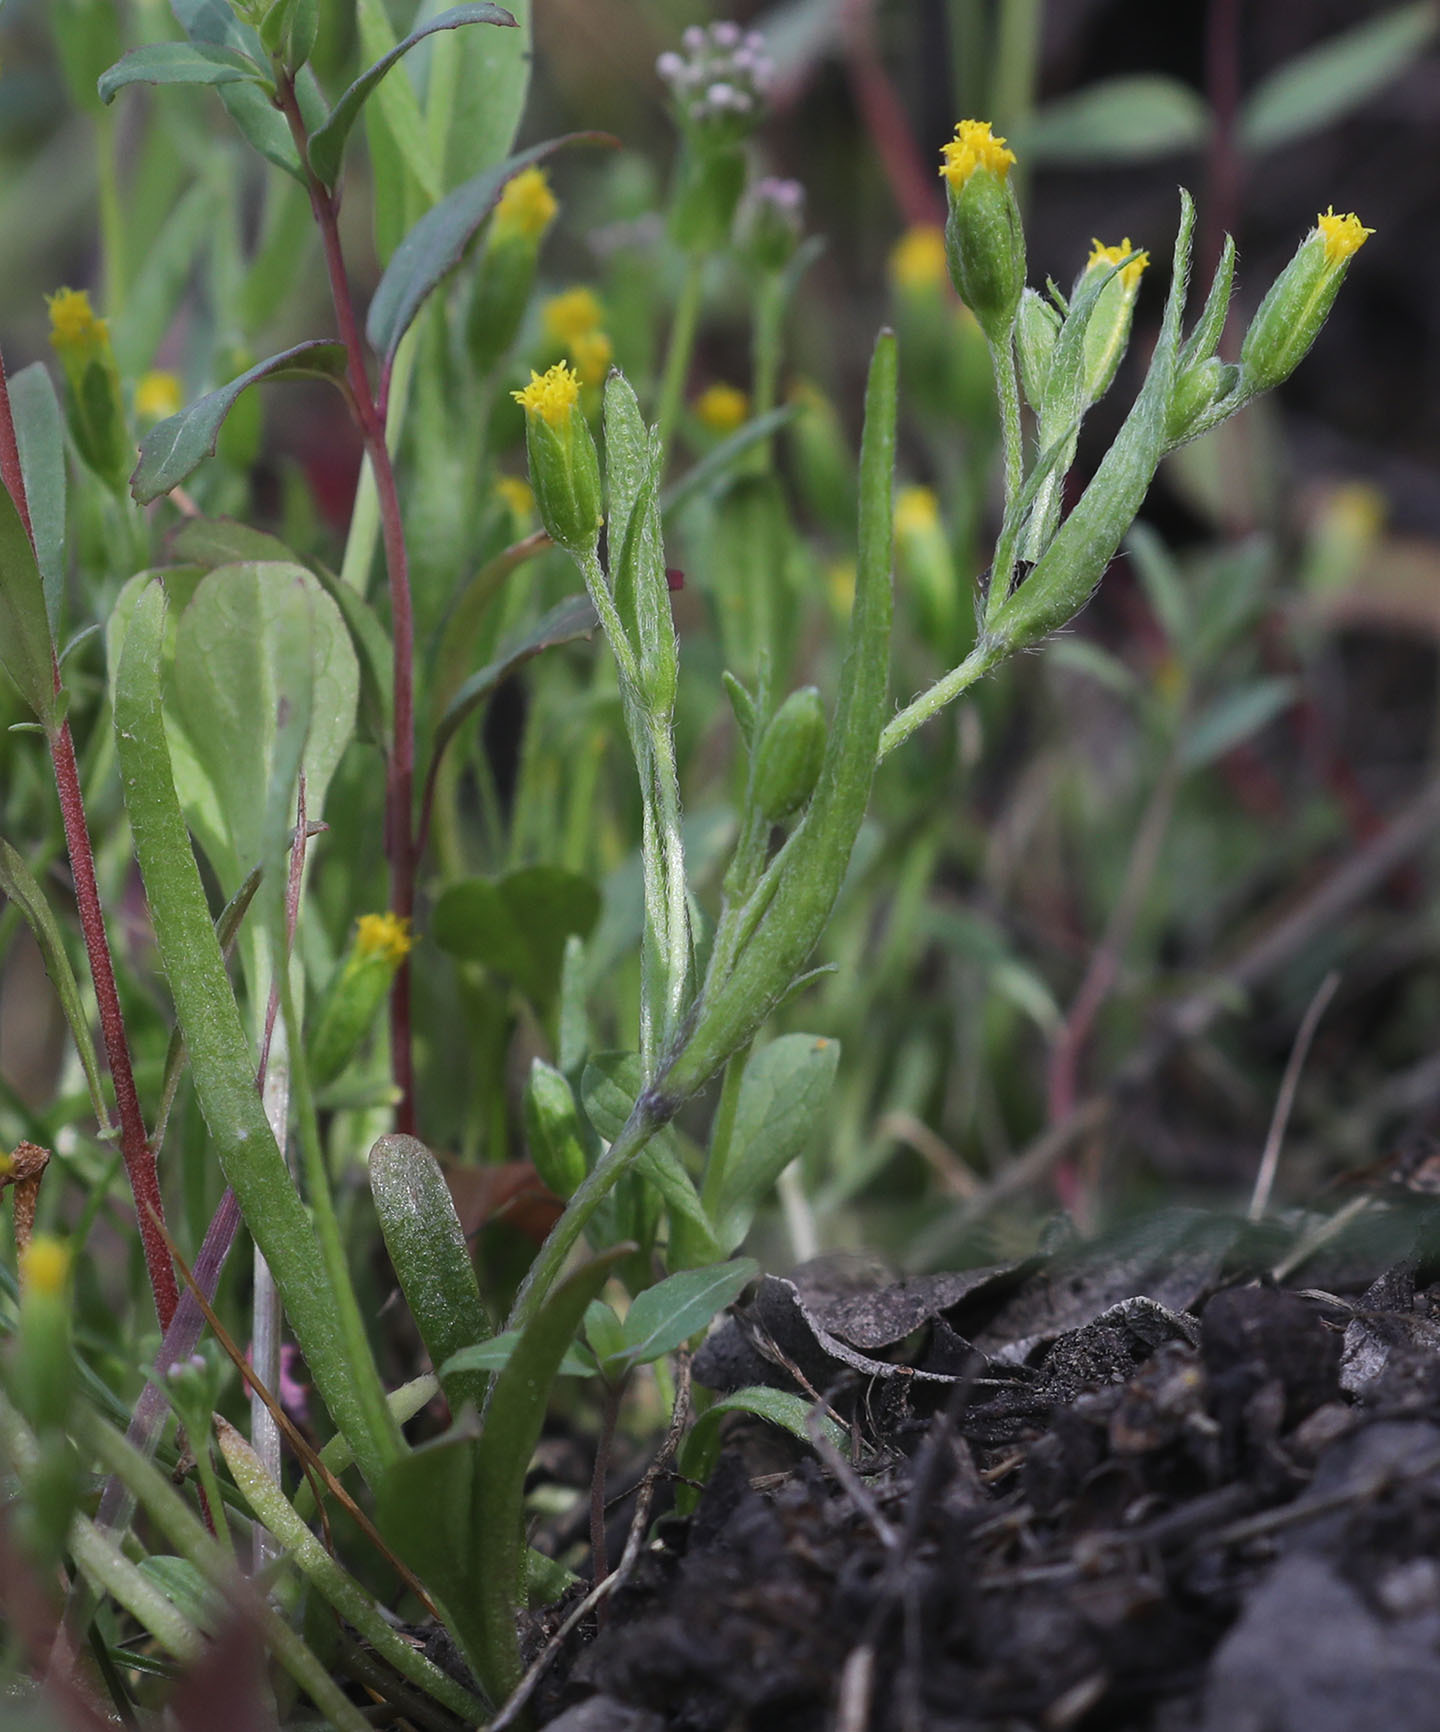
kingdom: Plantae
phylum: Tracheophyta
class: Magnoliopsida
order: Asterales
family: Asteraceae
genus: Lasthenia
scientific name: Lasthenia microglossa
